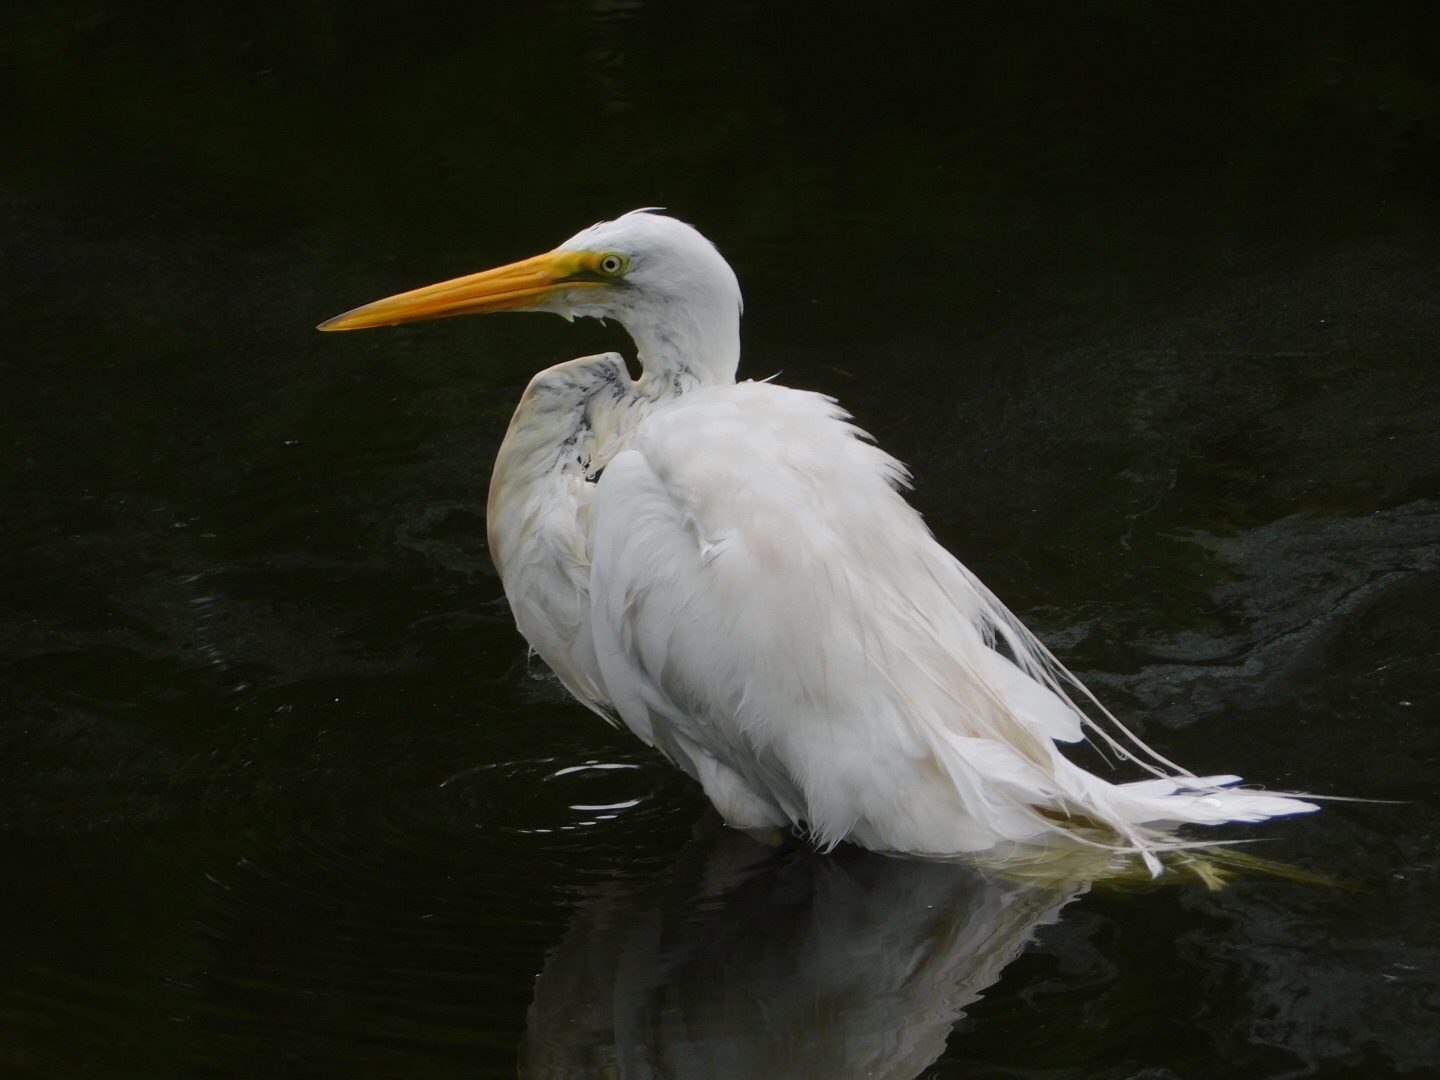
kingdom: Animalia
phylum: Chordata
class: Aves
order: Pelecaniformes
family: Ardeidae
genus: Ardea
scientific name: Ardea alba
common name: Great egret
